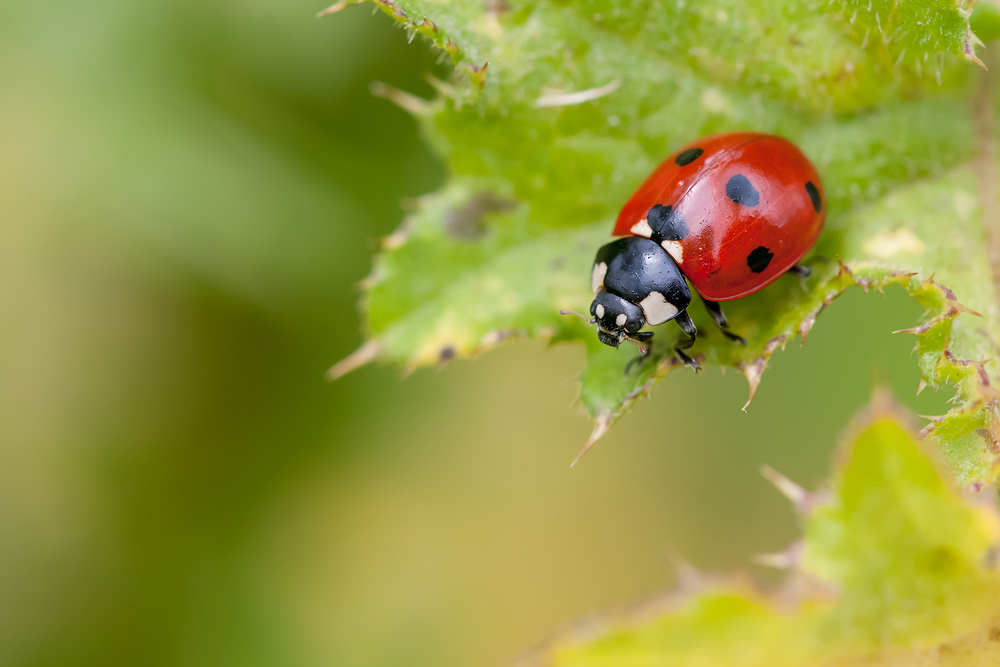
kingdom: Animalia
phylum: Arthropoda
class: Insecta
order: Coleoptera
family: Coccinellidae
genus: Coccinella
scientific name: Coccinella septempunctata
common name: Sevenspotted lady beetle
